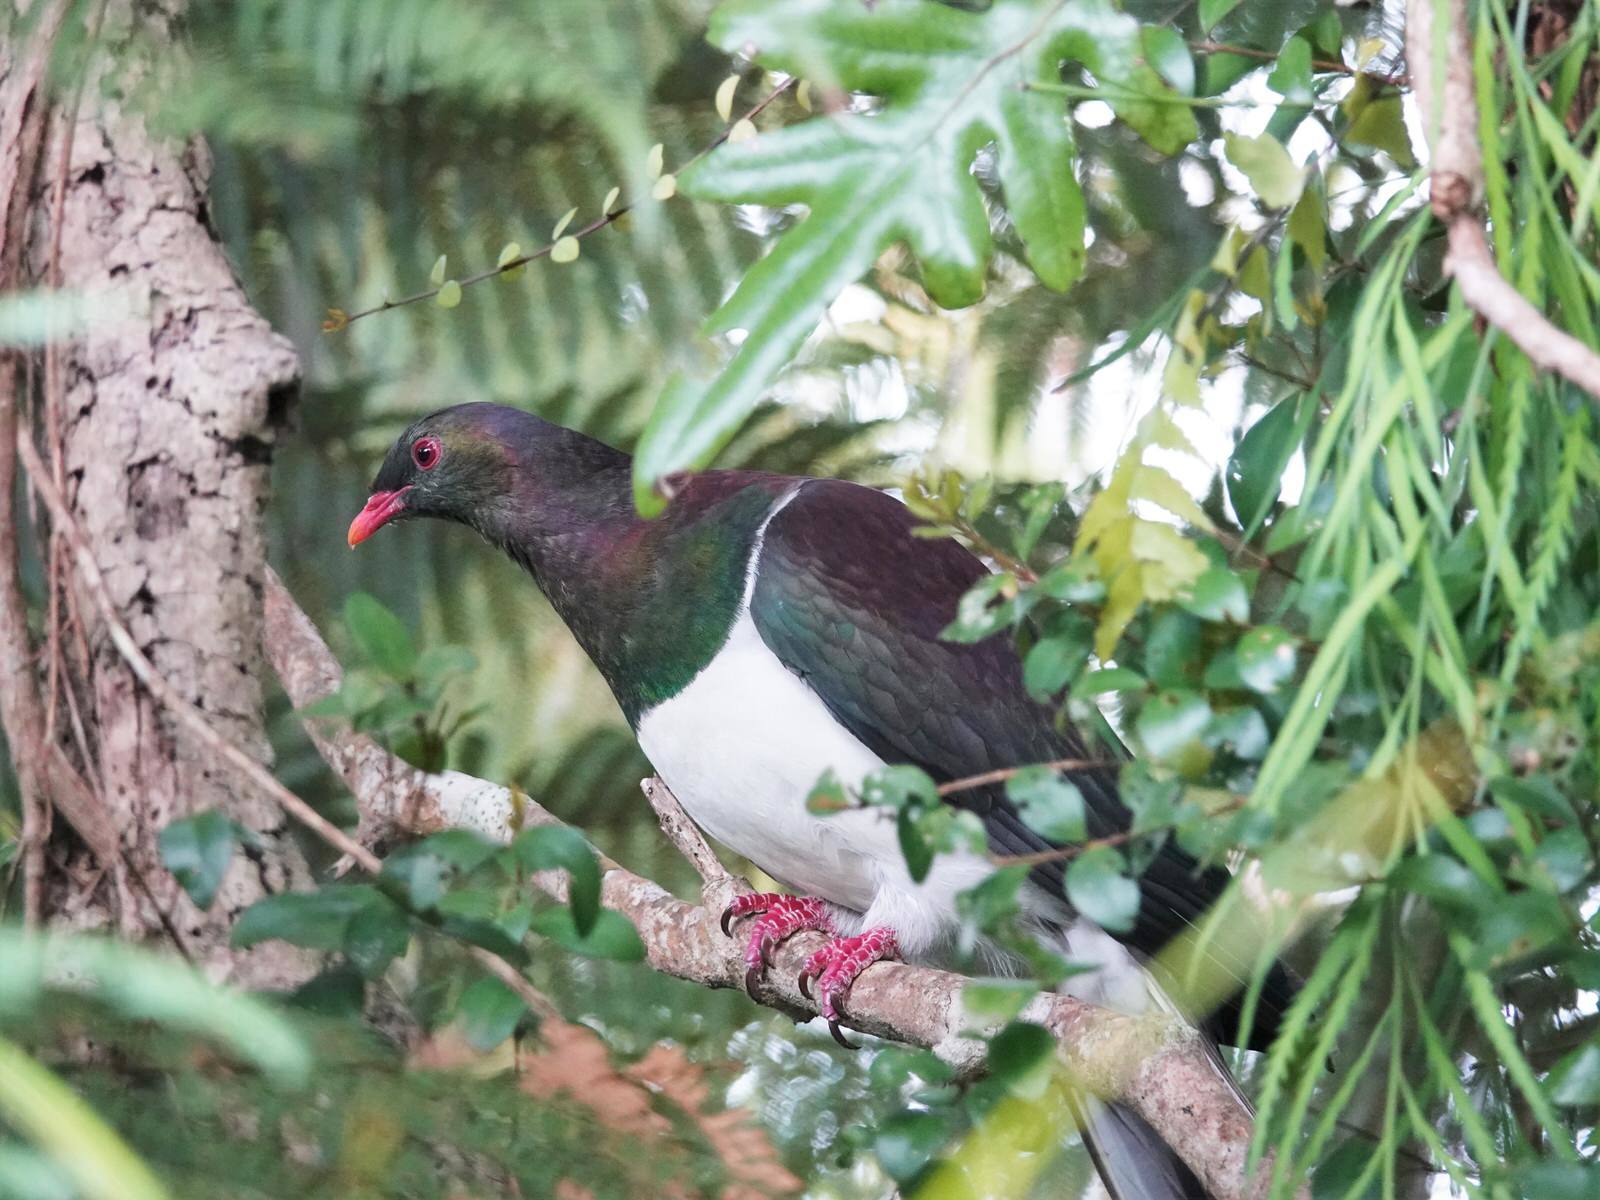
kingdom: Animalia
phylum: Chordata
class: Aves
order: Columbiformes
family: Columbidae
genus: Hemiphaga
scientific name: Hemiphaga novaeseelandiae
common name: New zealand pigeon
